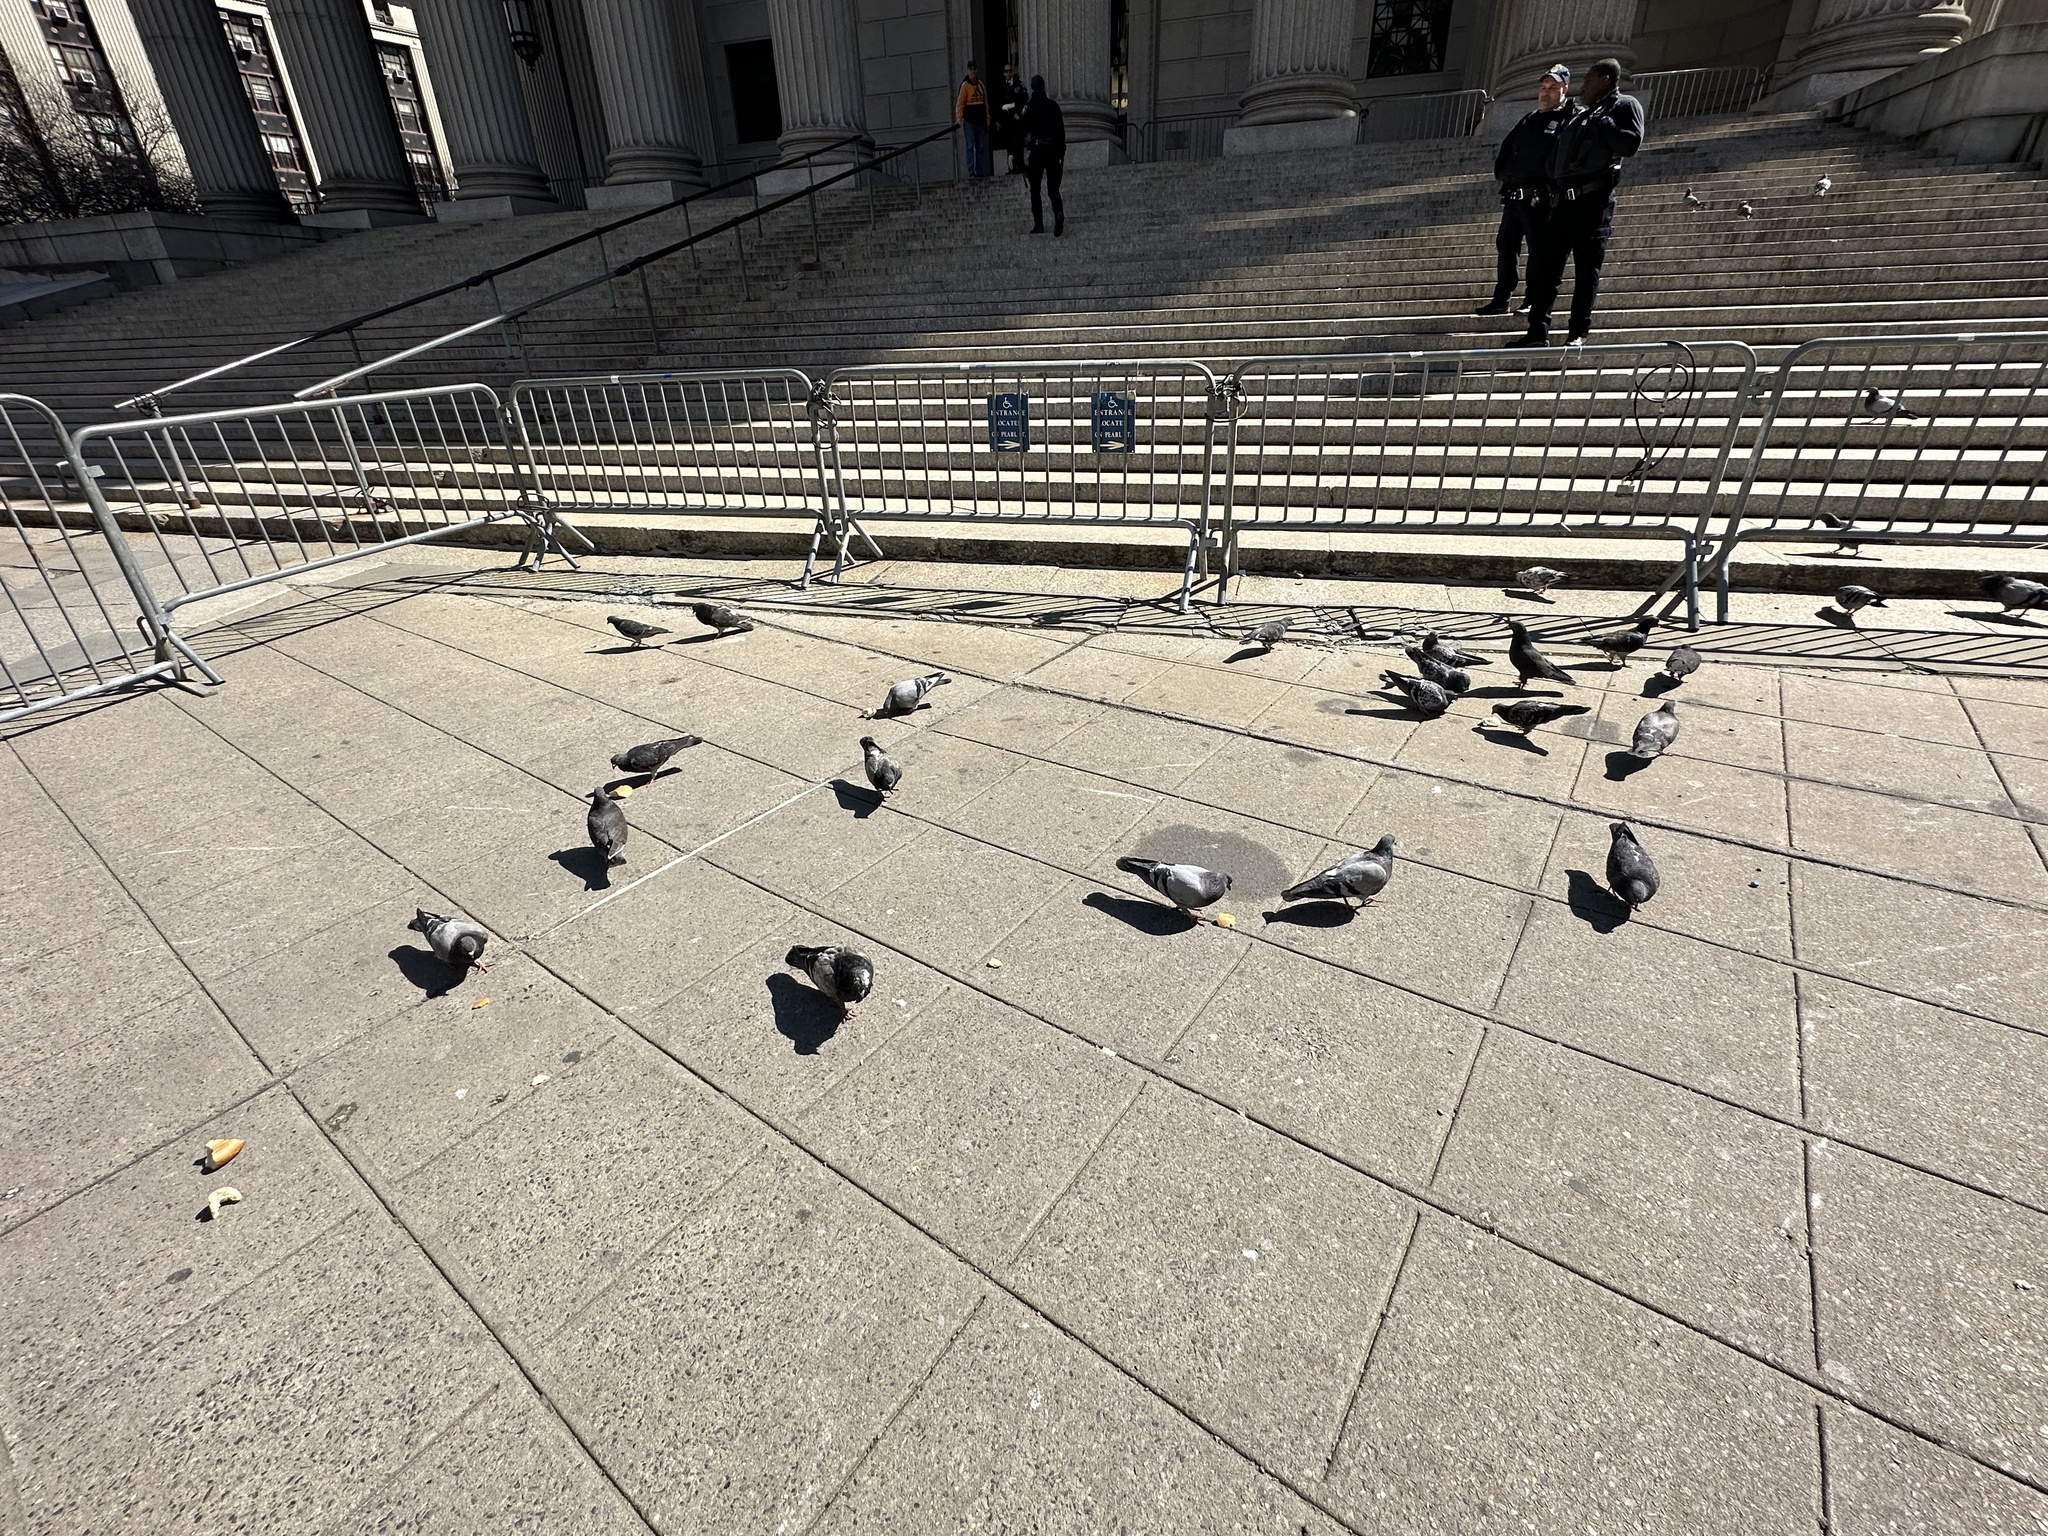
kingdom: Animalia
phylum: Chordata
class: Aves
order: Columbiformes
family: Columbidae
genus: Columba
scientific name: Columba livia
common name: Rock pigeon
